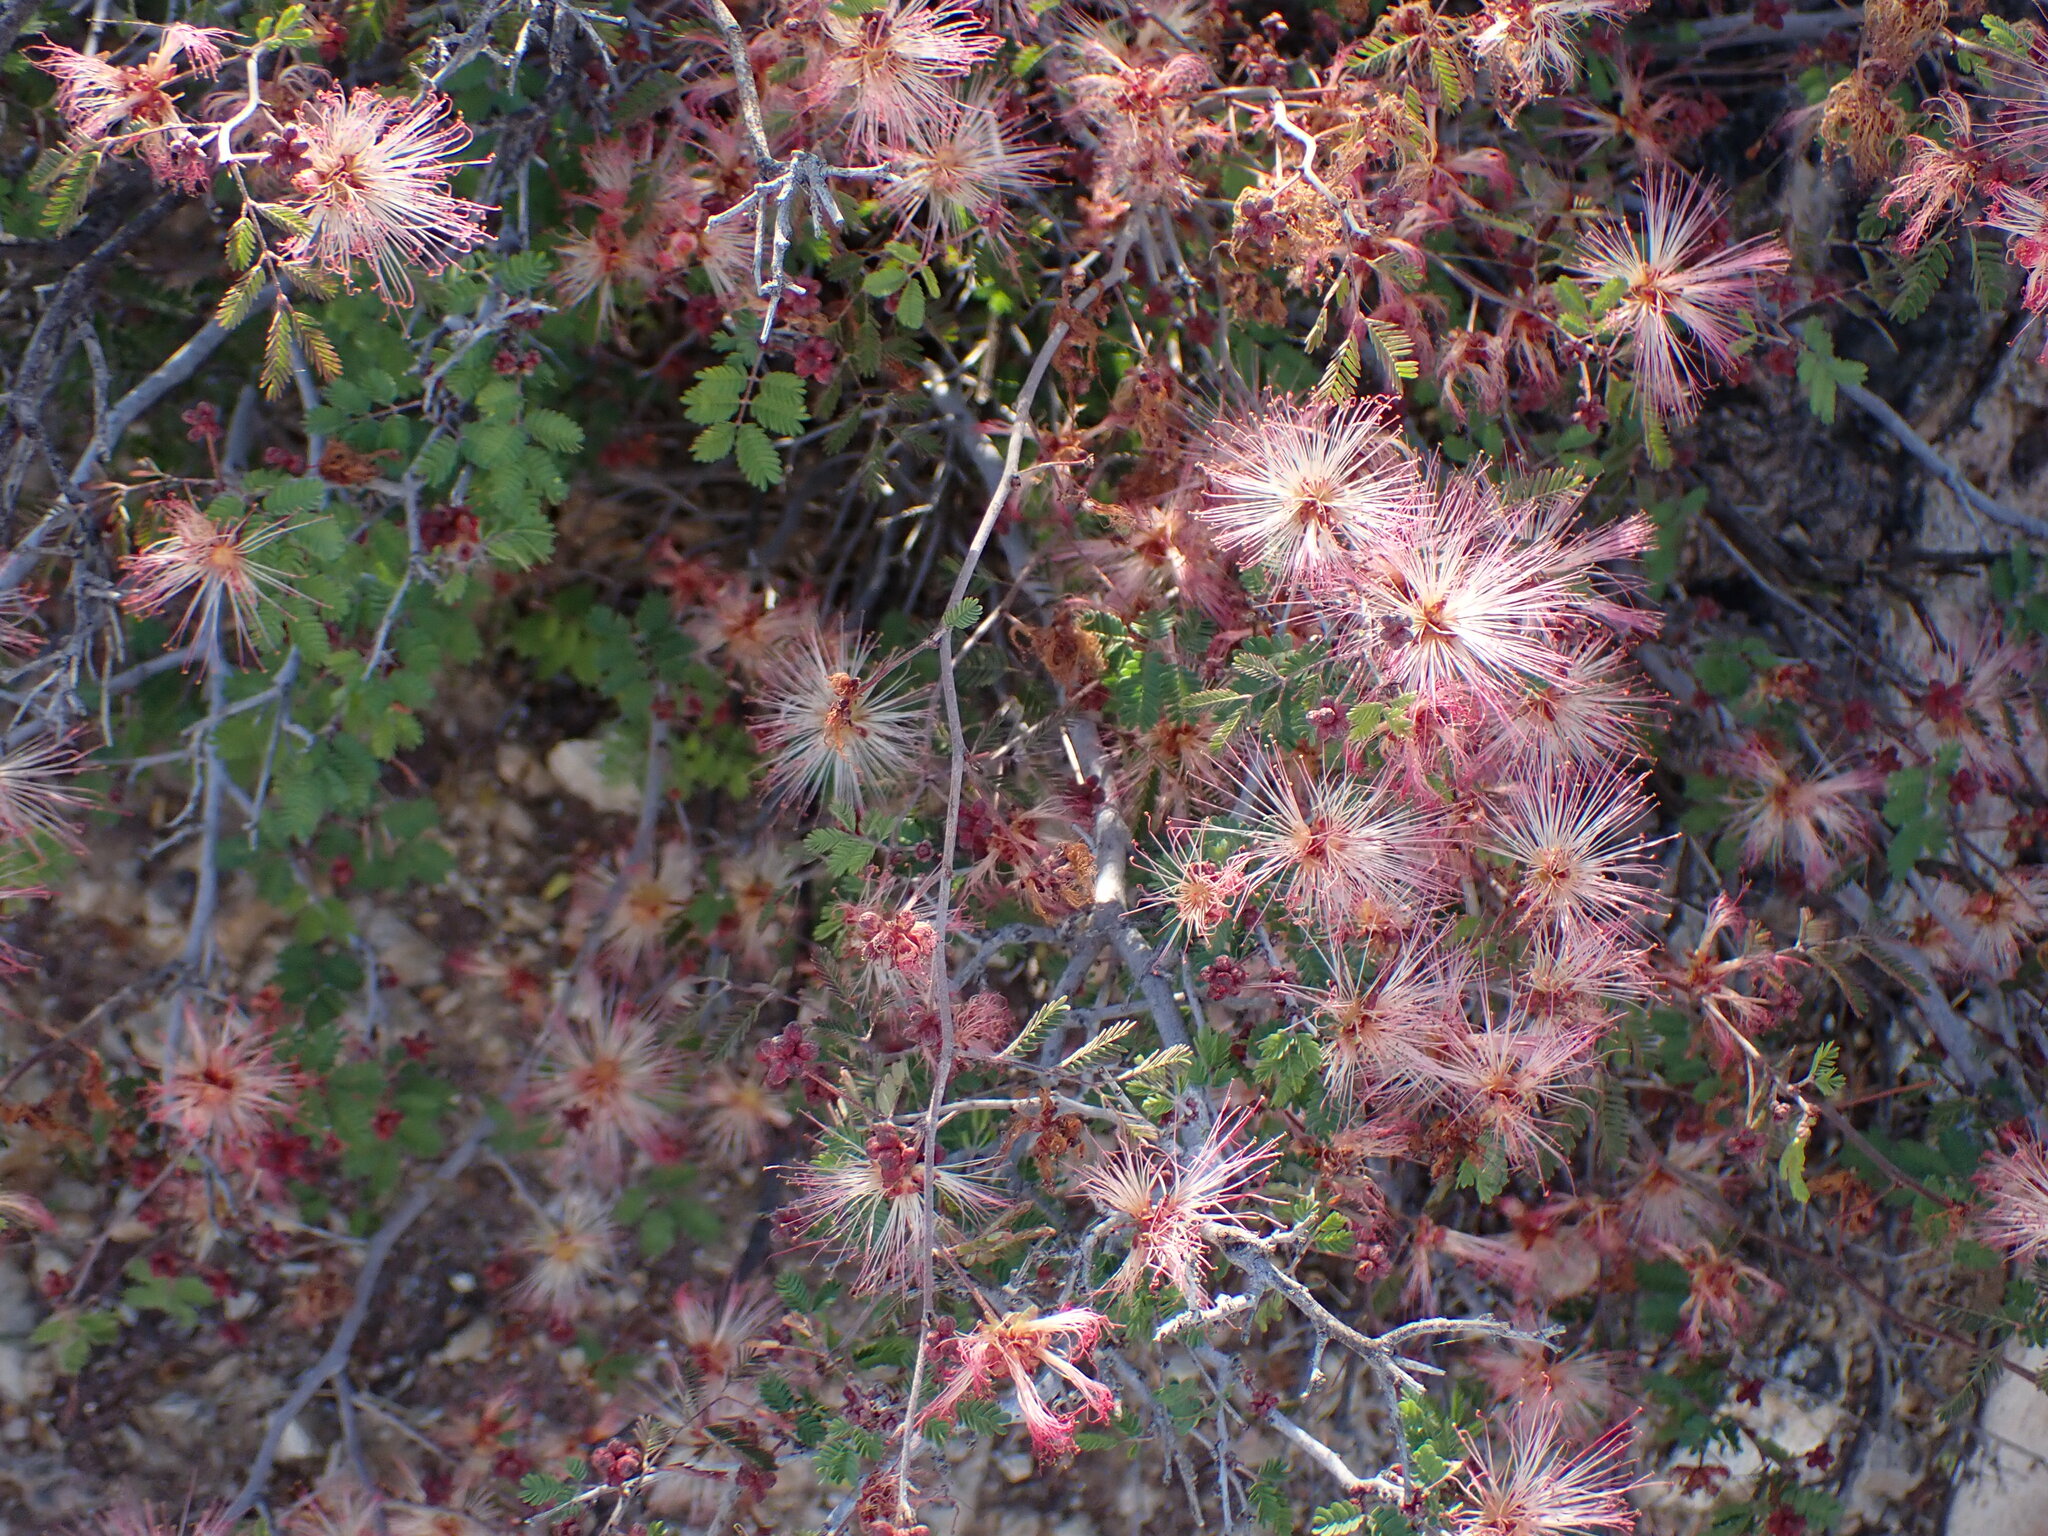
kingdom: Plantae
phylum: Tracheophyta
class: Magnoliopsida
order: Fabales
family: Fabaceae
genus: Calliandra
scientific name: Calliandra eriophylla
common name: Fairy-duster
